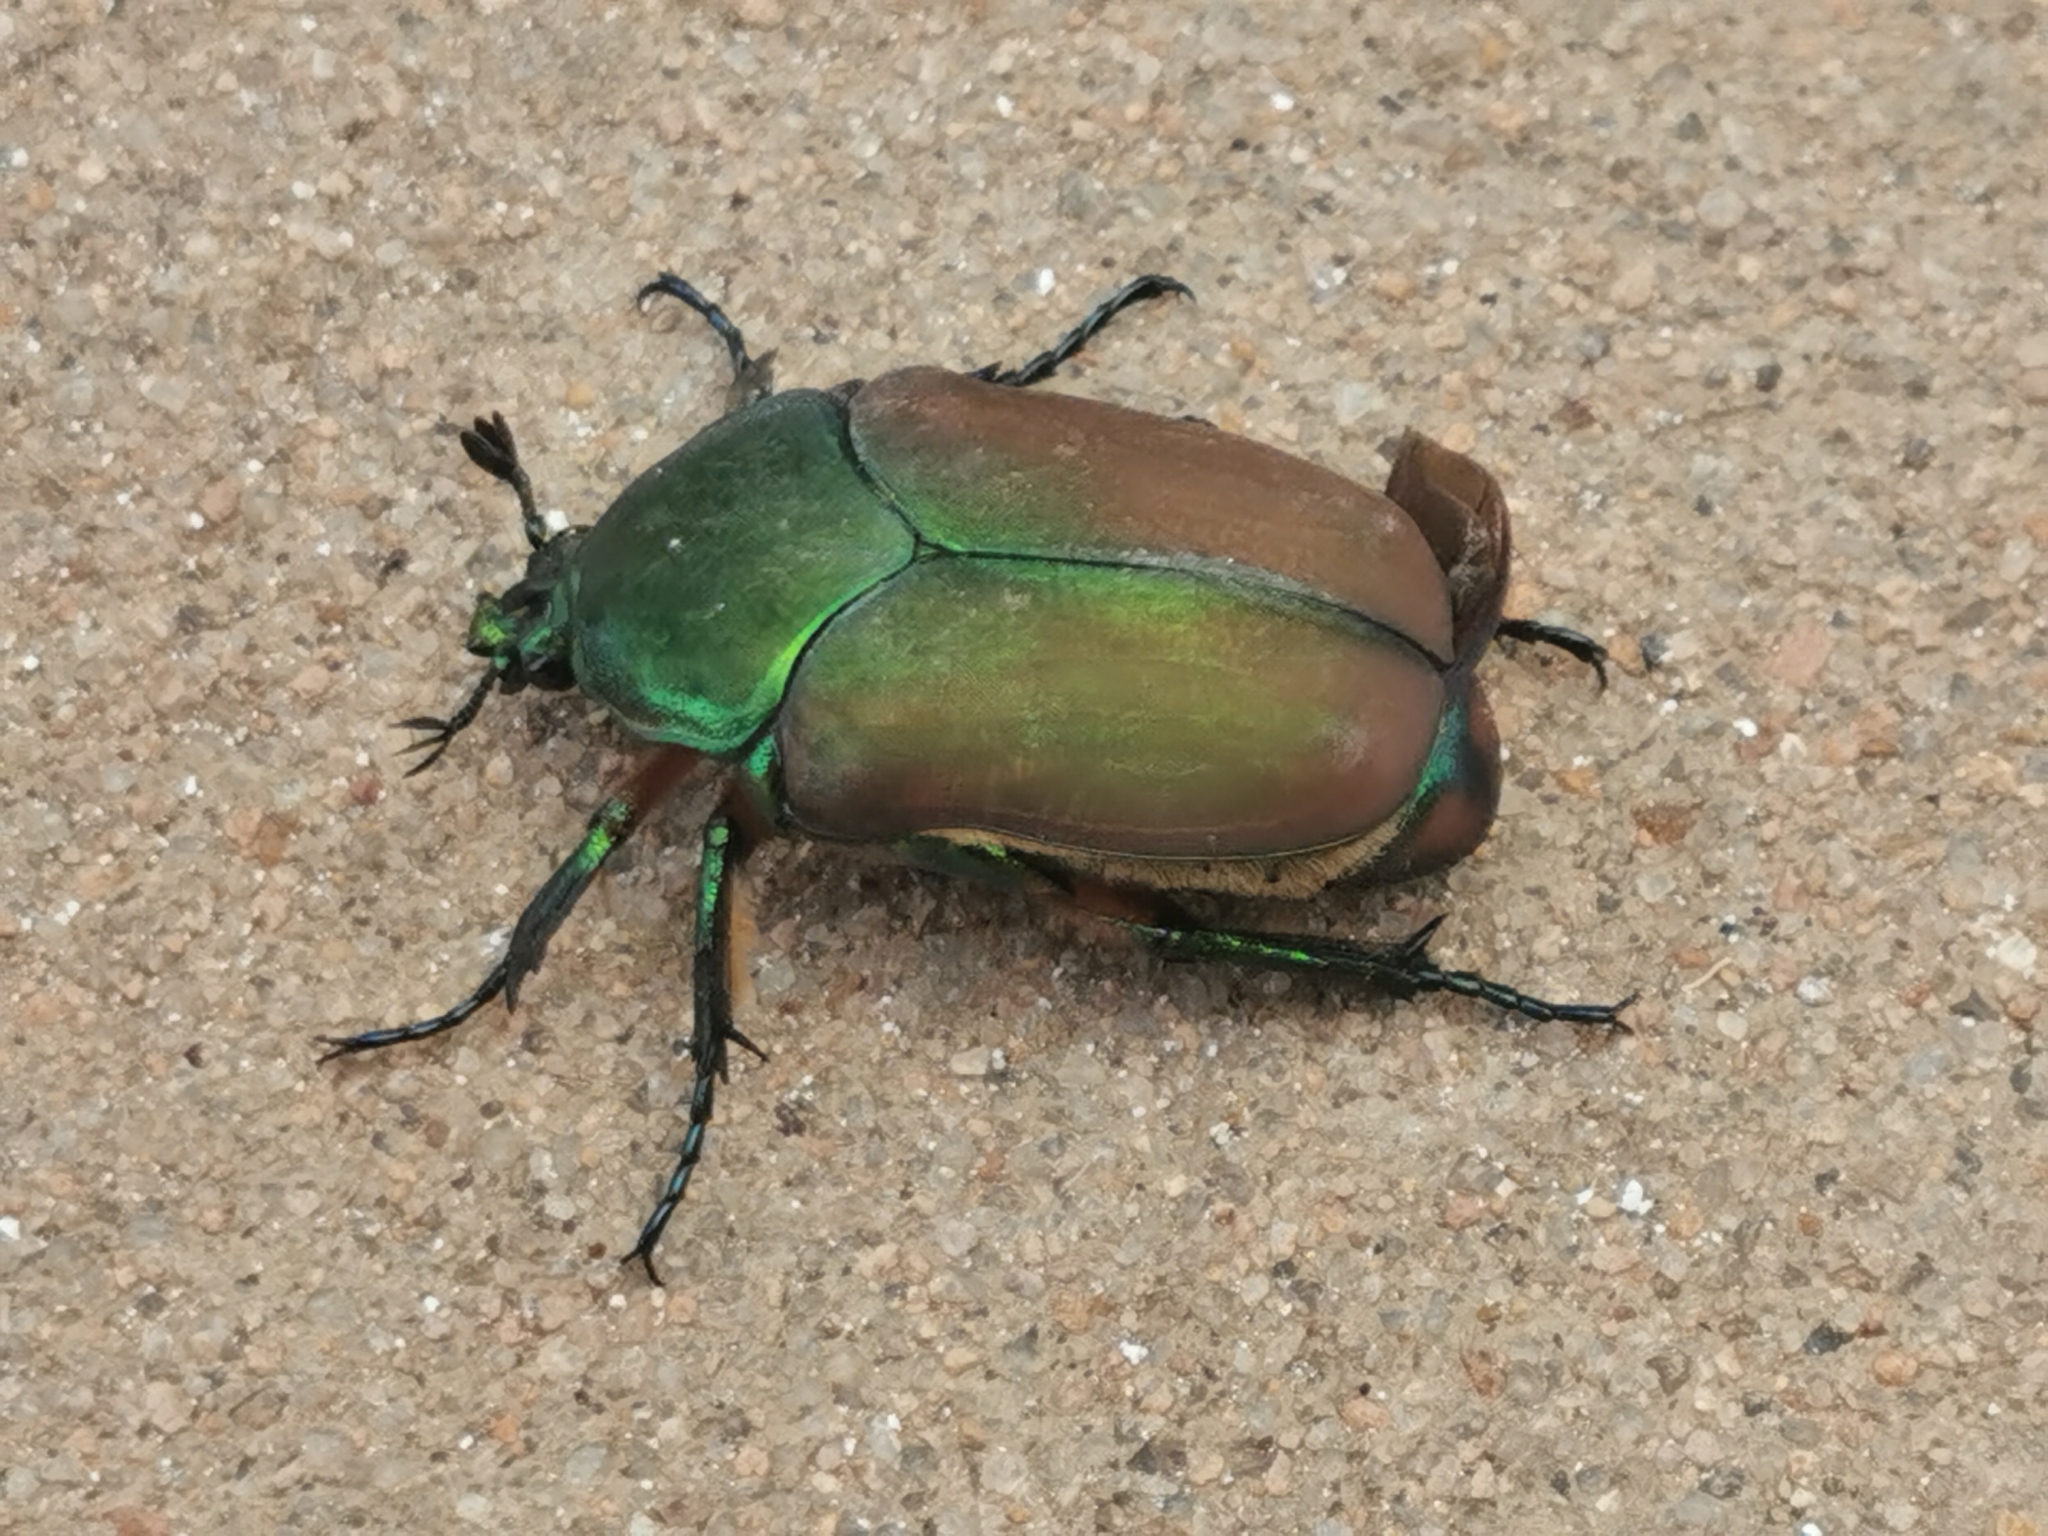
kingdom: Animalia
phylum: Arthropoda
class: Insecta
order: Coleoptera
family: Scarabaeidae
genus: Cotinis
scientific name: Cotinis laticornis
